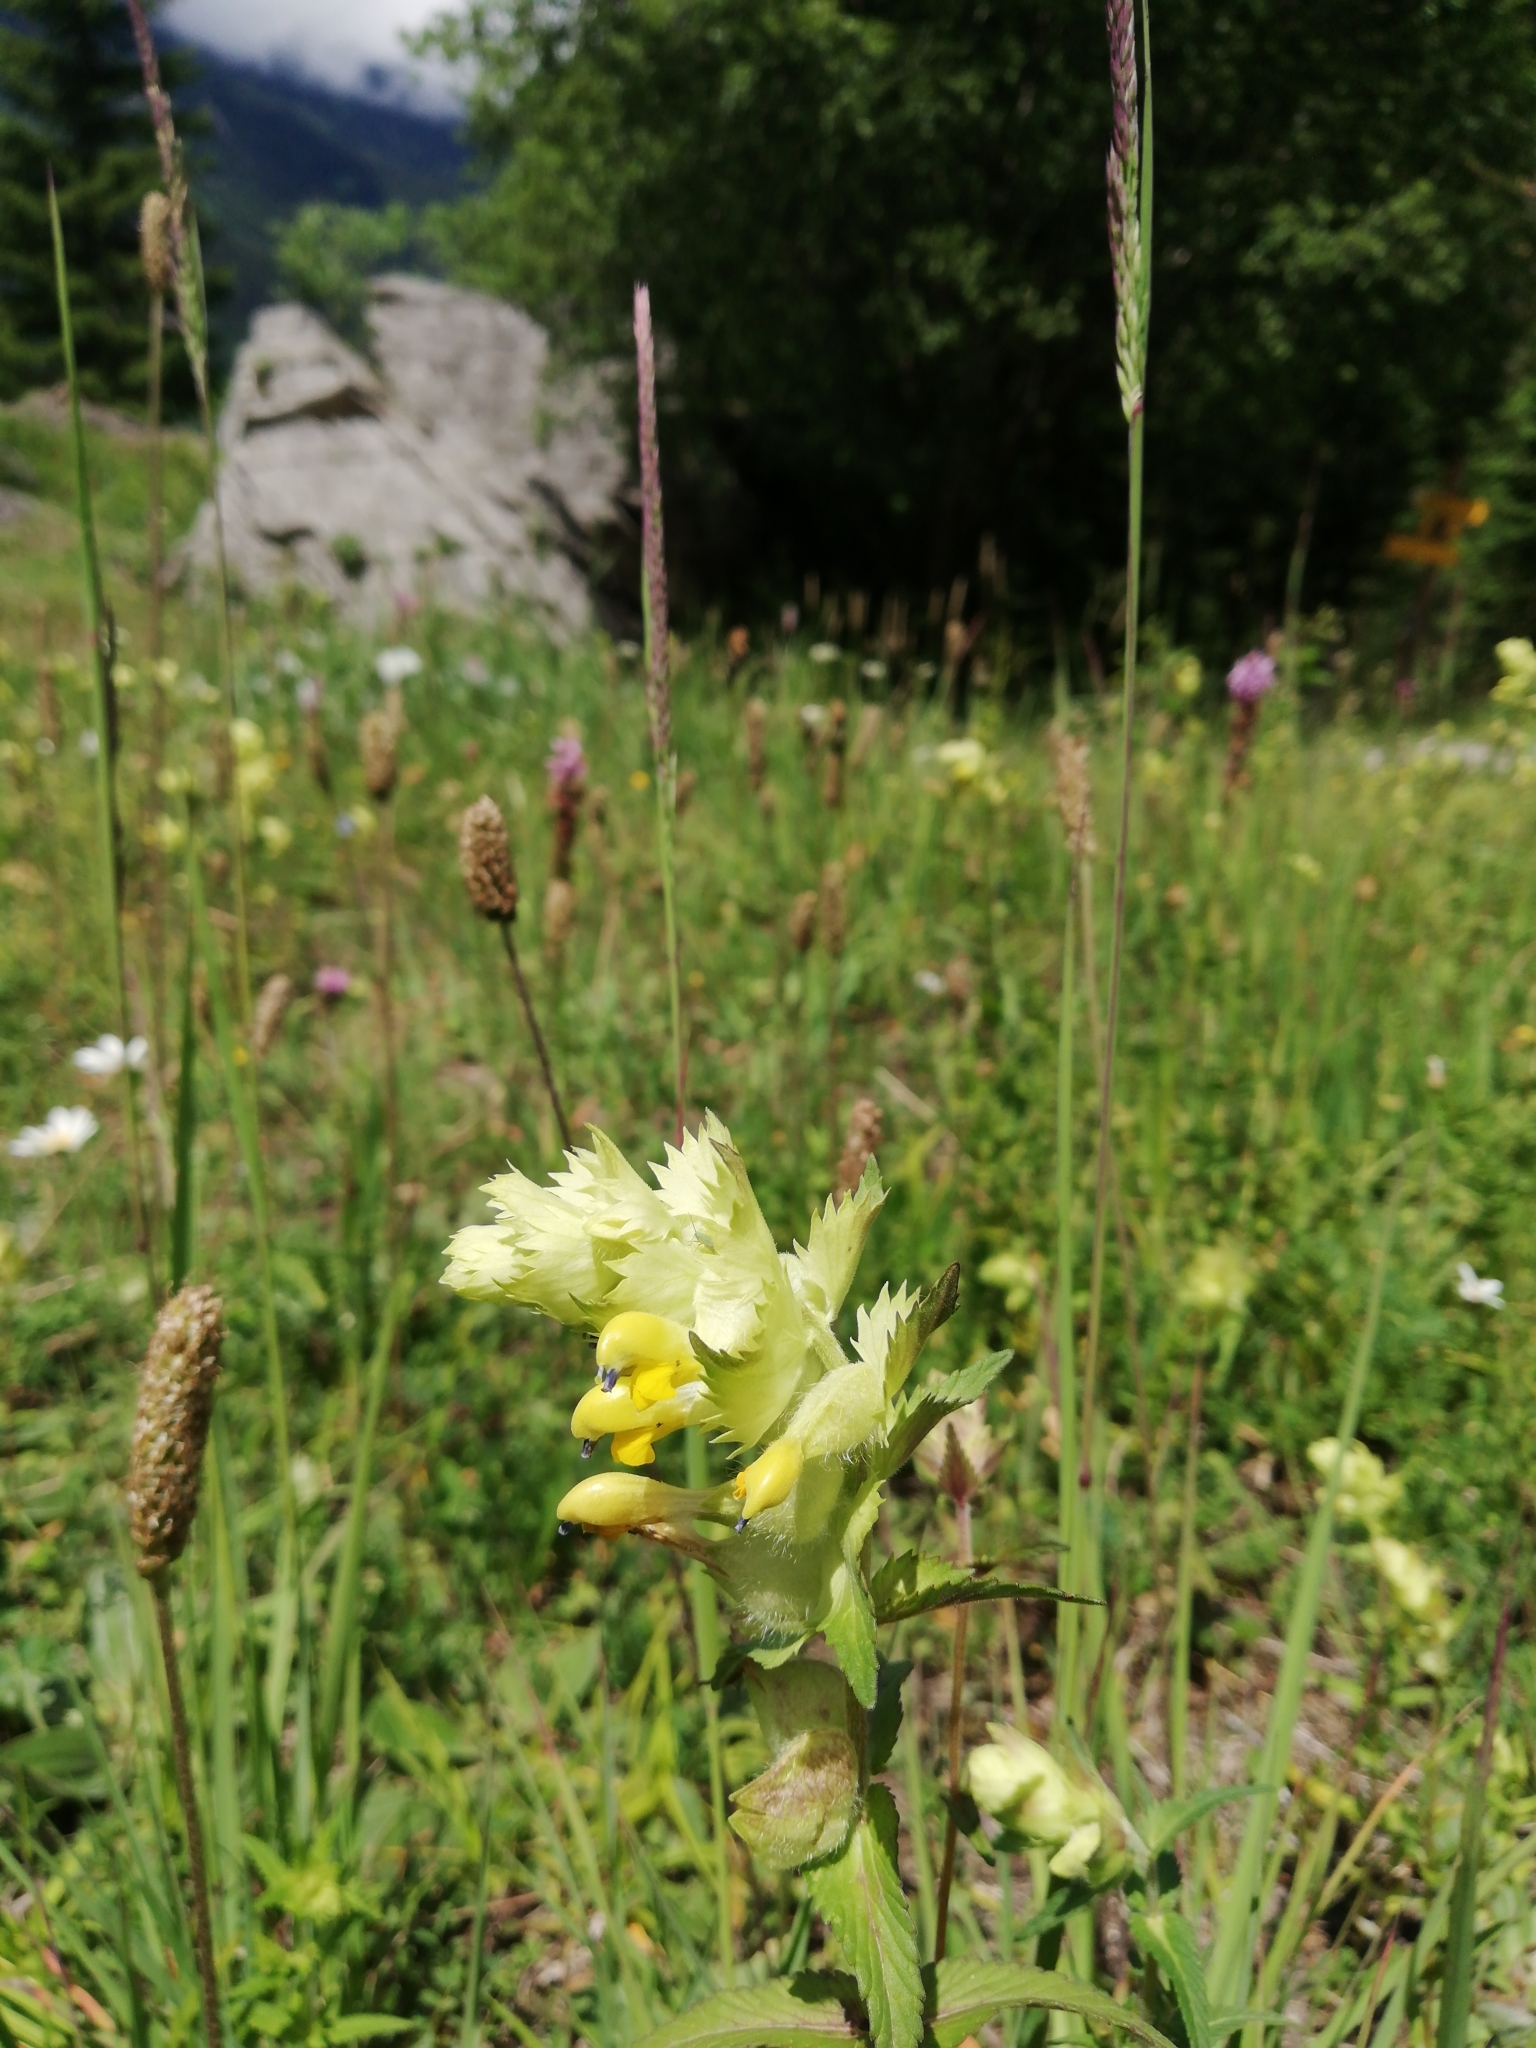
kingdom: Plantae
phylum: Tracheophyta
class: Magnoliopsida
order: Lamiales
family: Orobanchaceae
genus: Rhinanthus
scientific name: Rhinanthus alectorolophus
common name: Greater yellow-rattle
